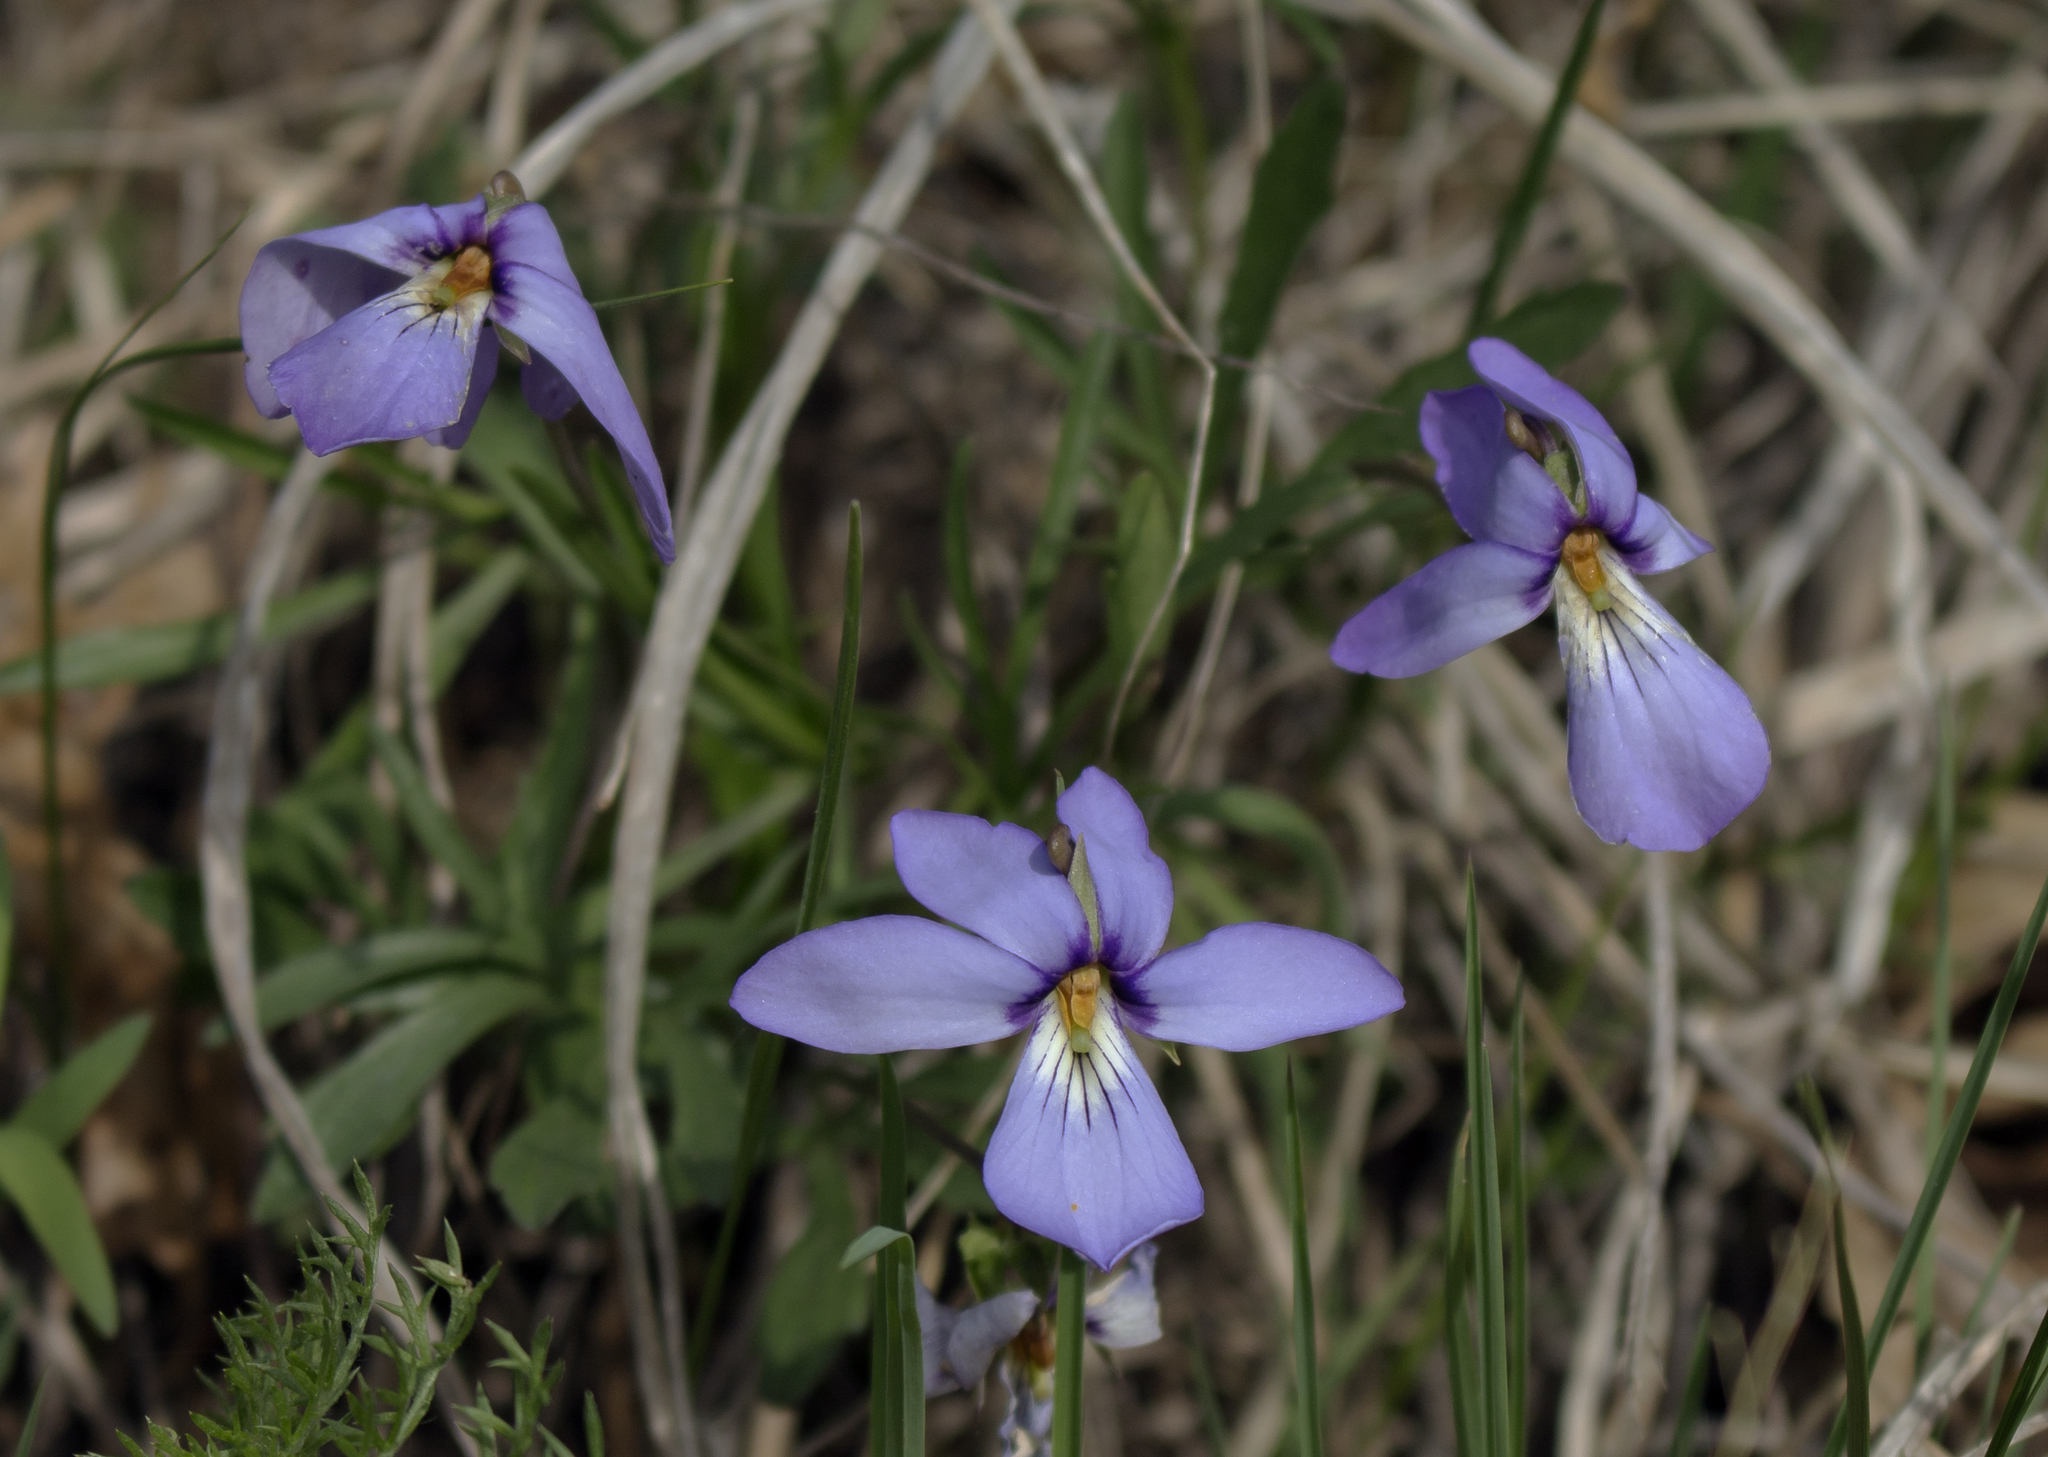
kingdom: Plantae
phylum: Tracheophyta
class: Magnoliopsida
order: Malpighiales
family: Violaceae
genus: Viola
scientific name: Viola pedata
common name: Pansy violet
